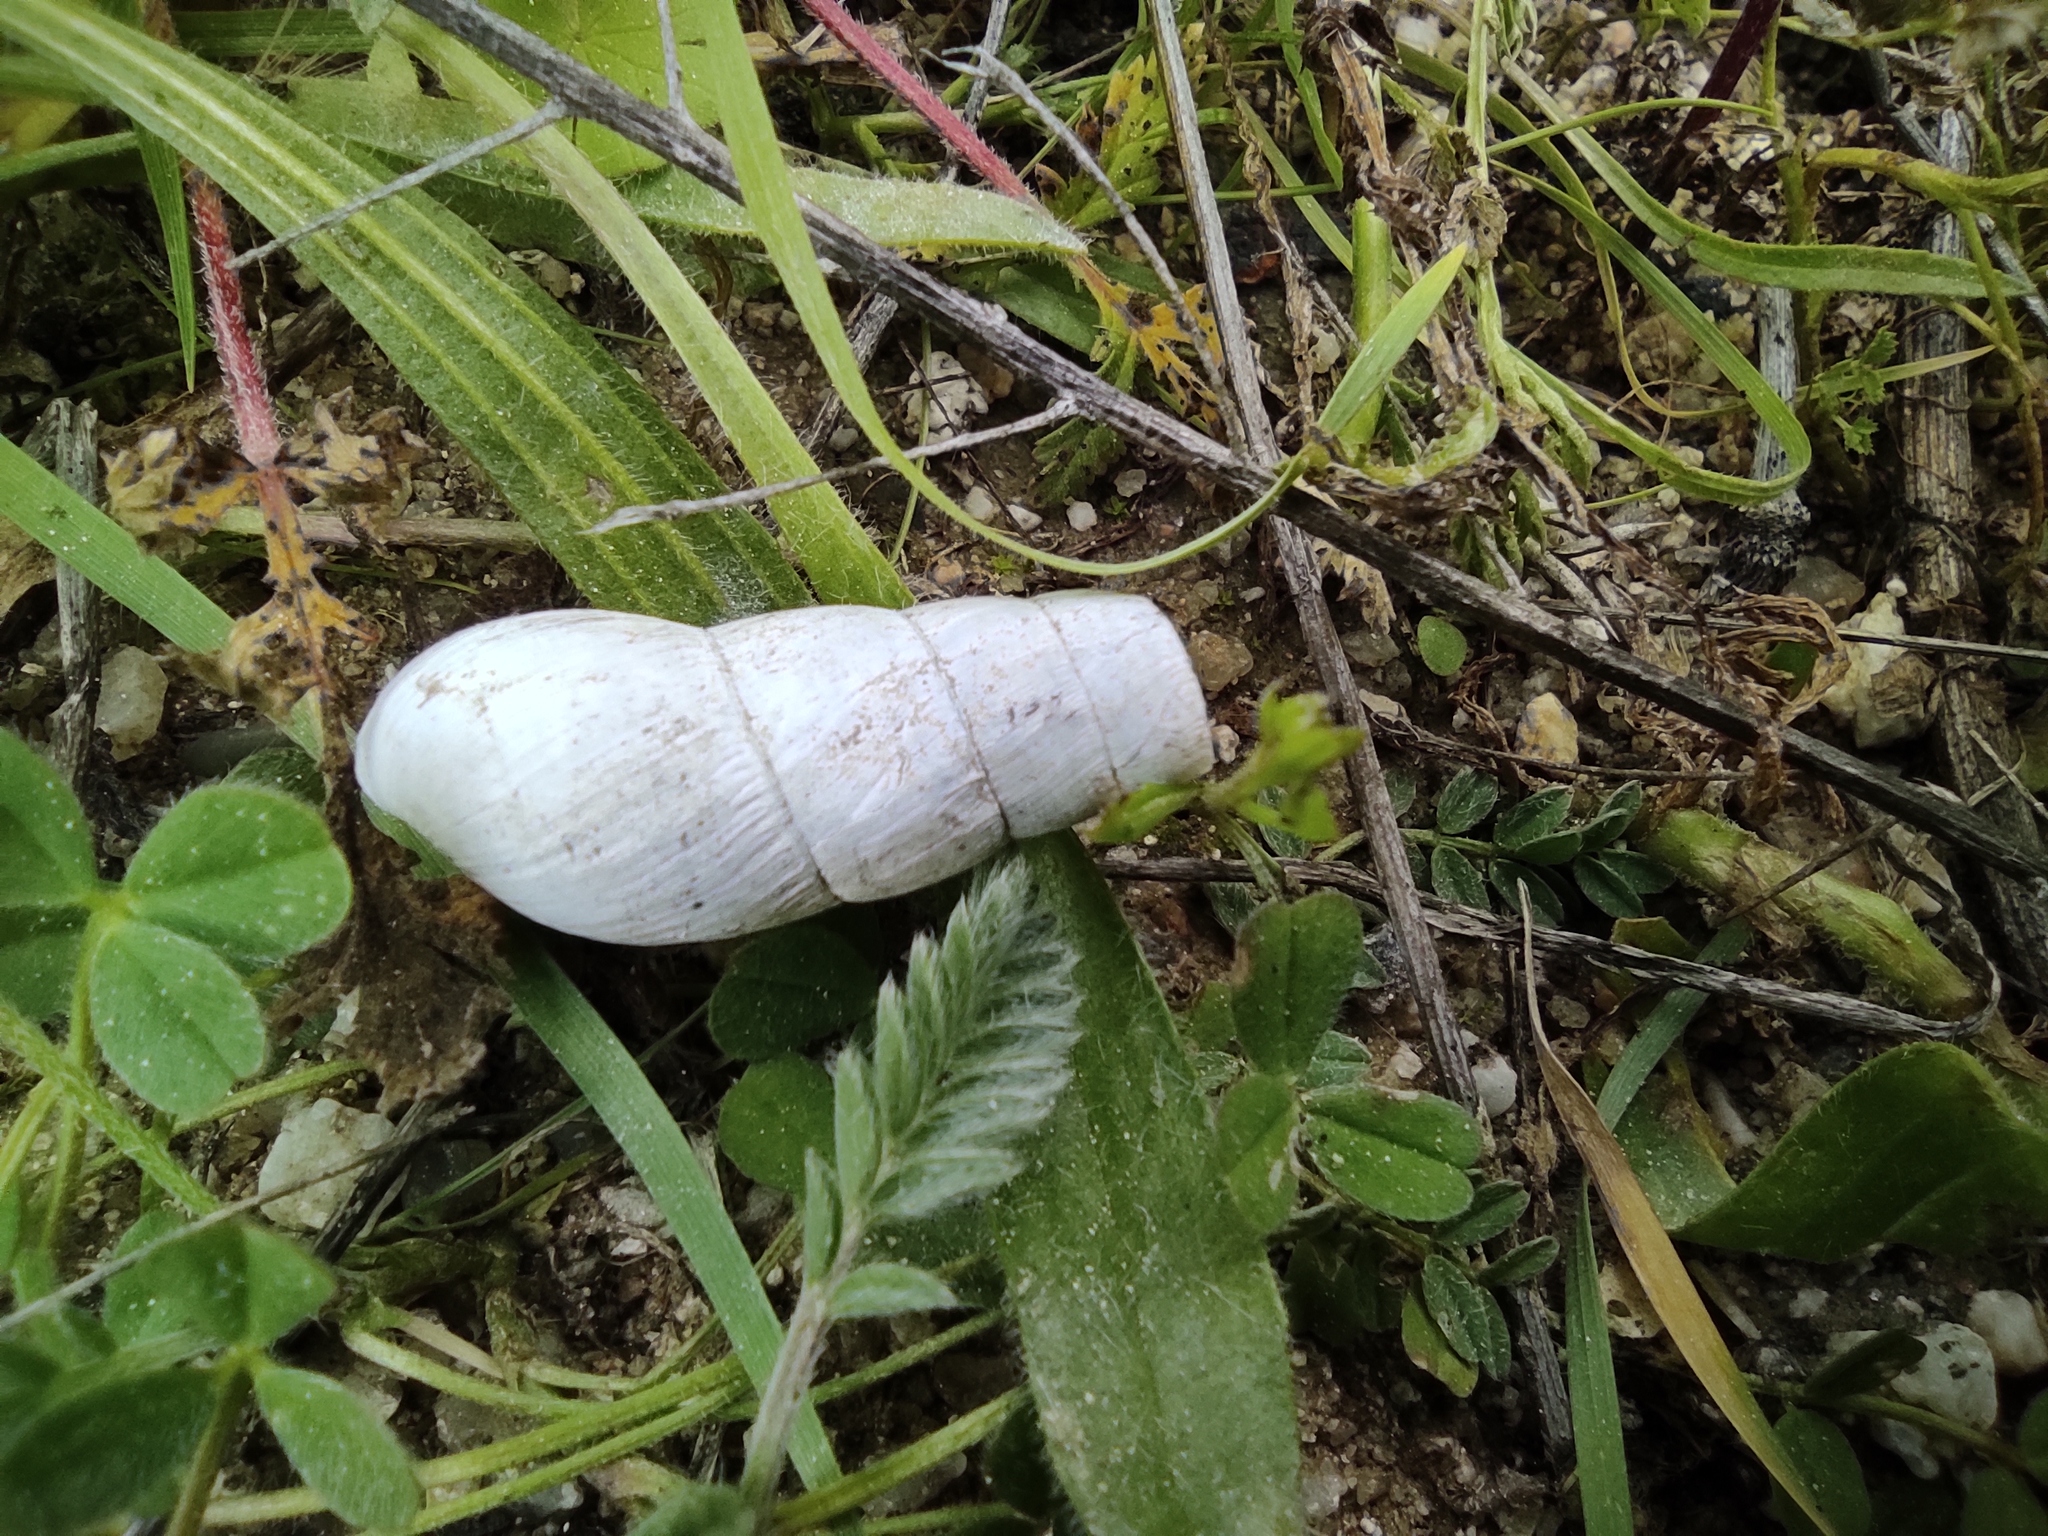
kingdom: Animalia
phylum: Mollusca
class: Gastropoda
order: Stylommatophora
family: Achatinidae
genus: Rumina
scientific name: Rumina decollata
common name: Decollate snail
